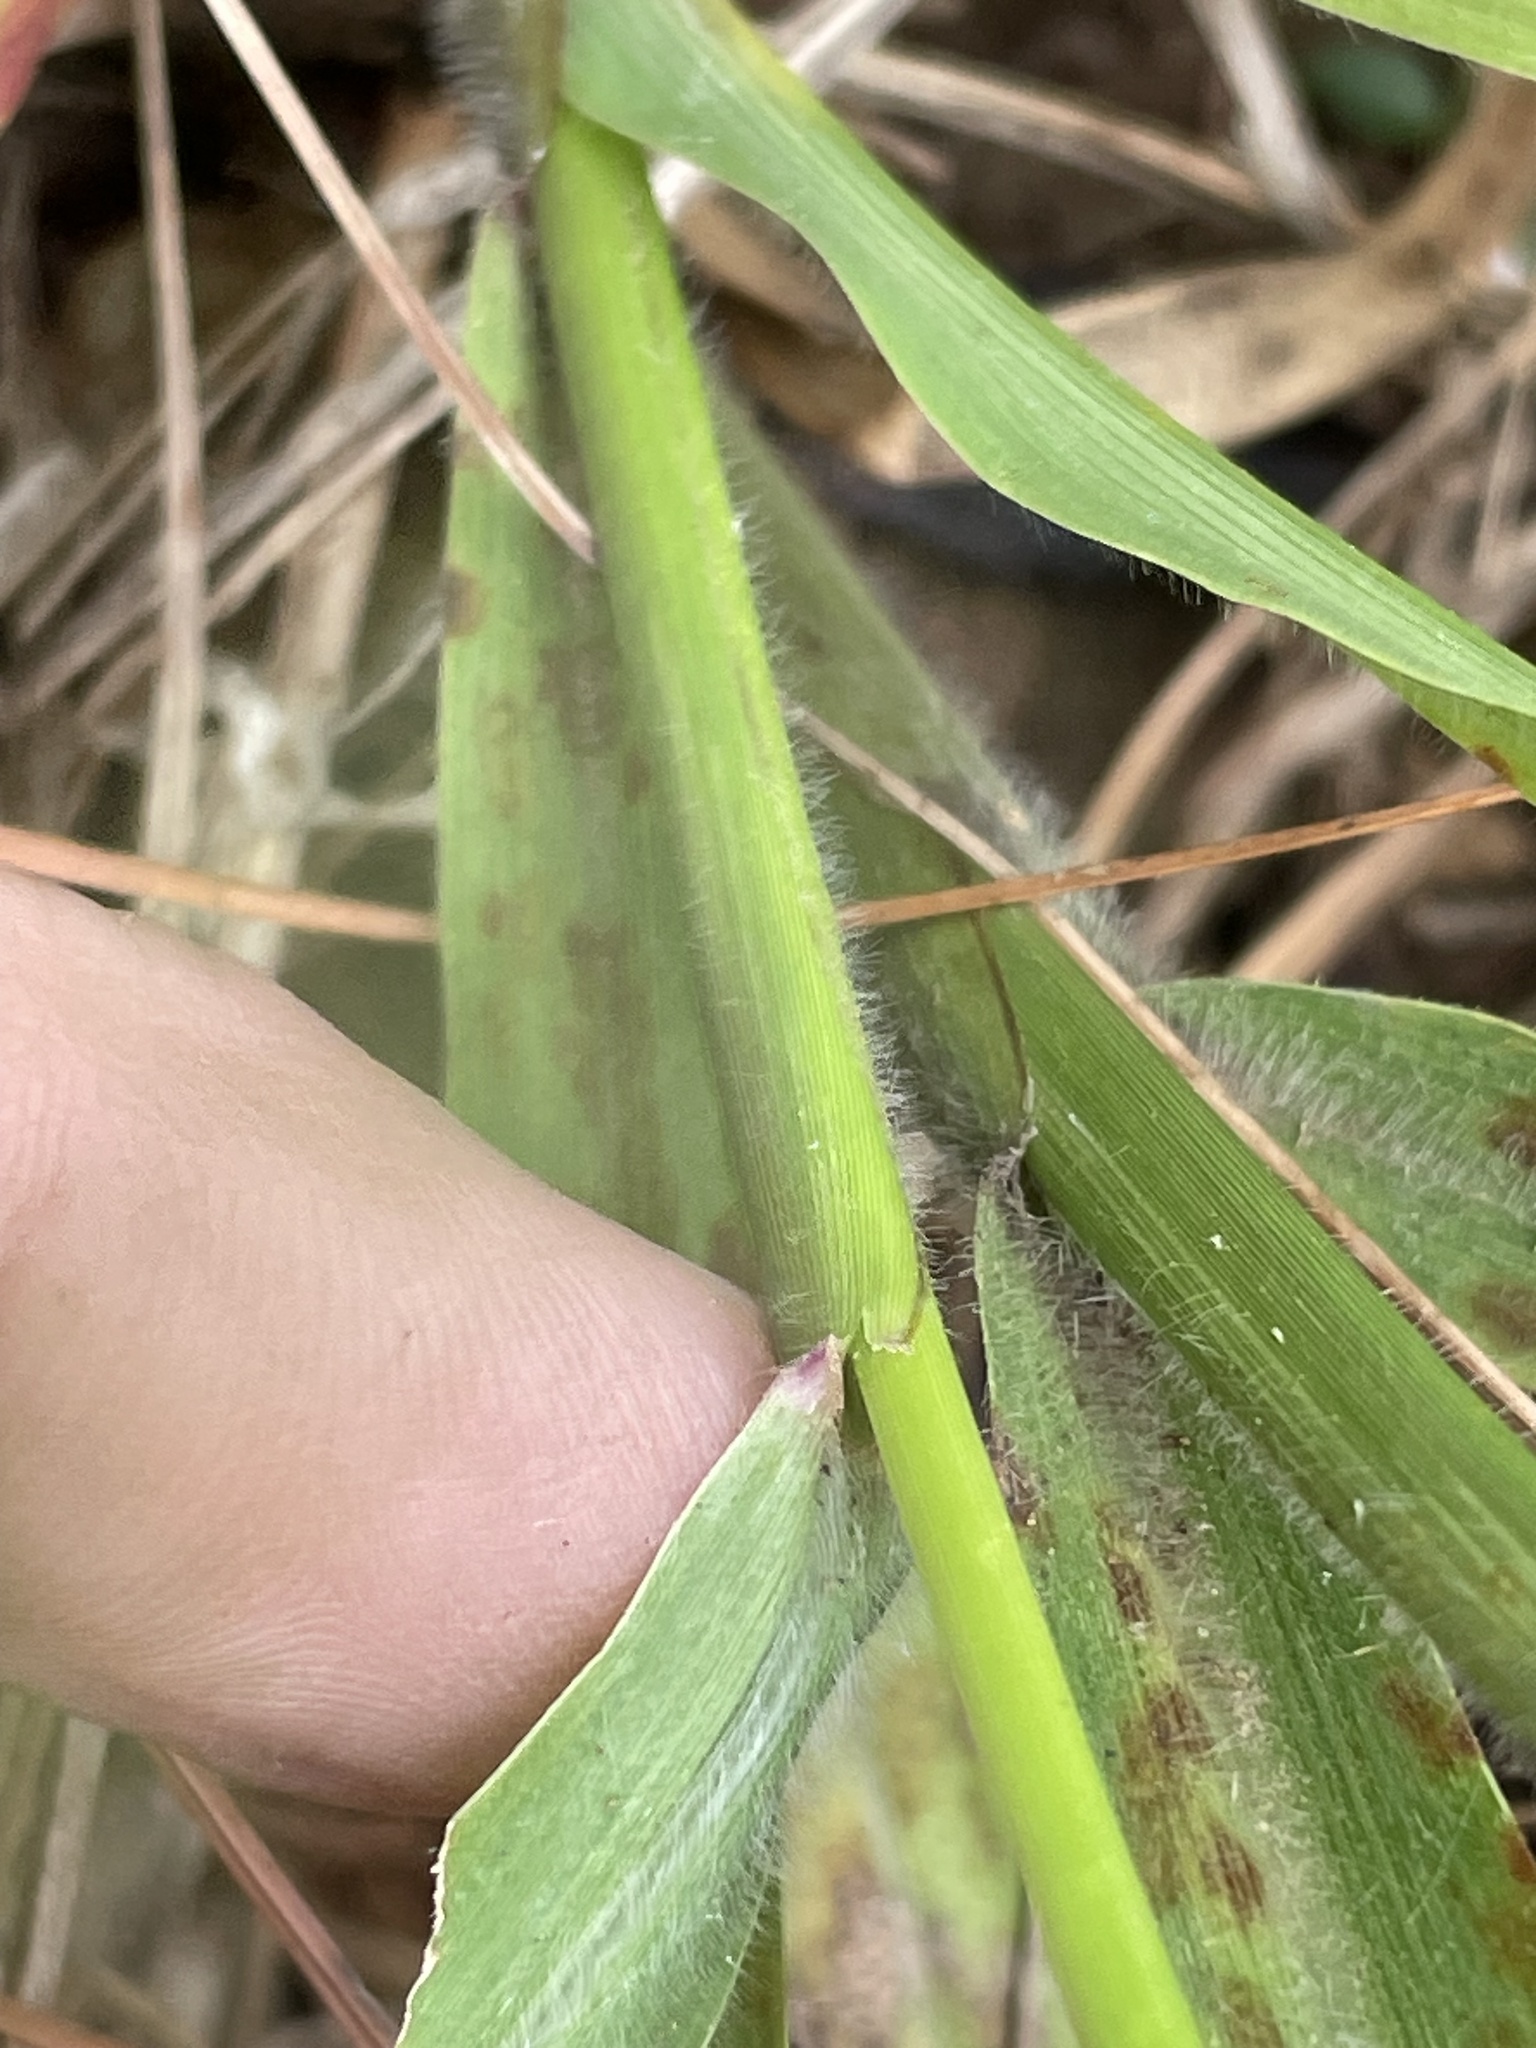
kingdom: Plantae
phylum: Tracheophyta
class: Liliopsida
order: Poales
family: Poaceae
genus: Coleataenia
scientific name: Coleataenia anceps
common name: Beaked panic grass
